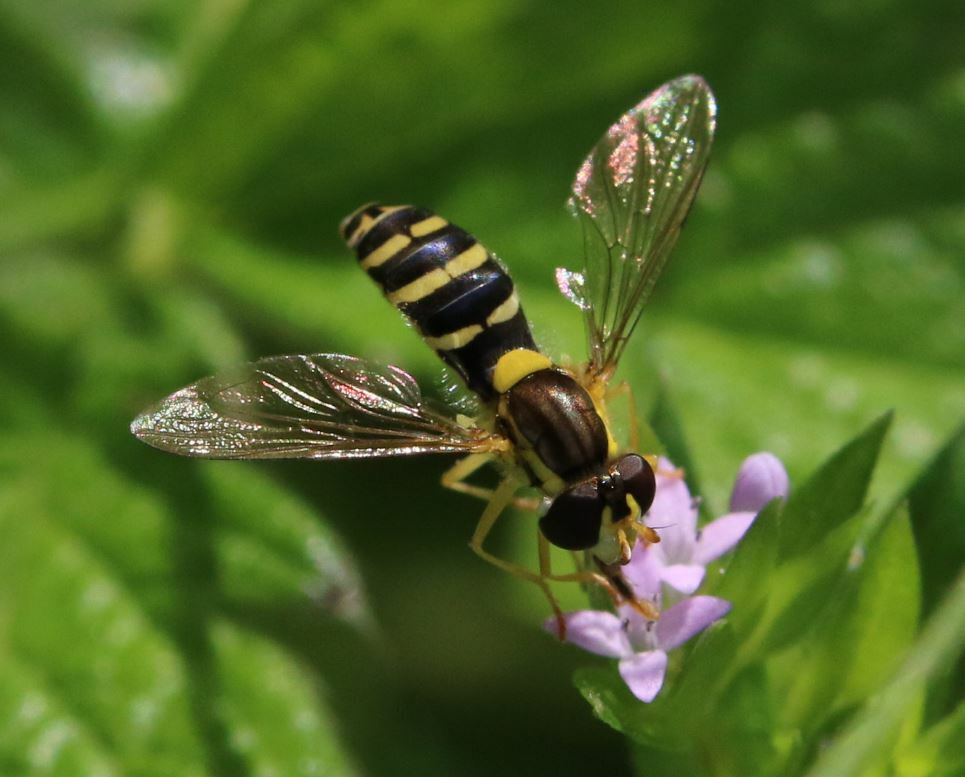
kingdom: Animalia
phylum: Arthropoda
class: Insecta
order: Diptera
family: Syrphidae
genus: Sphaerophoria
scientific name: Sphaerophoria
